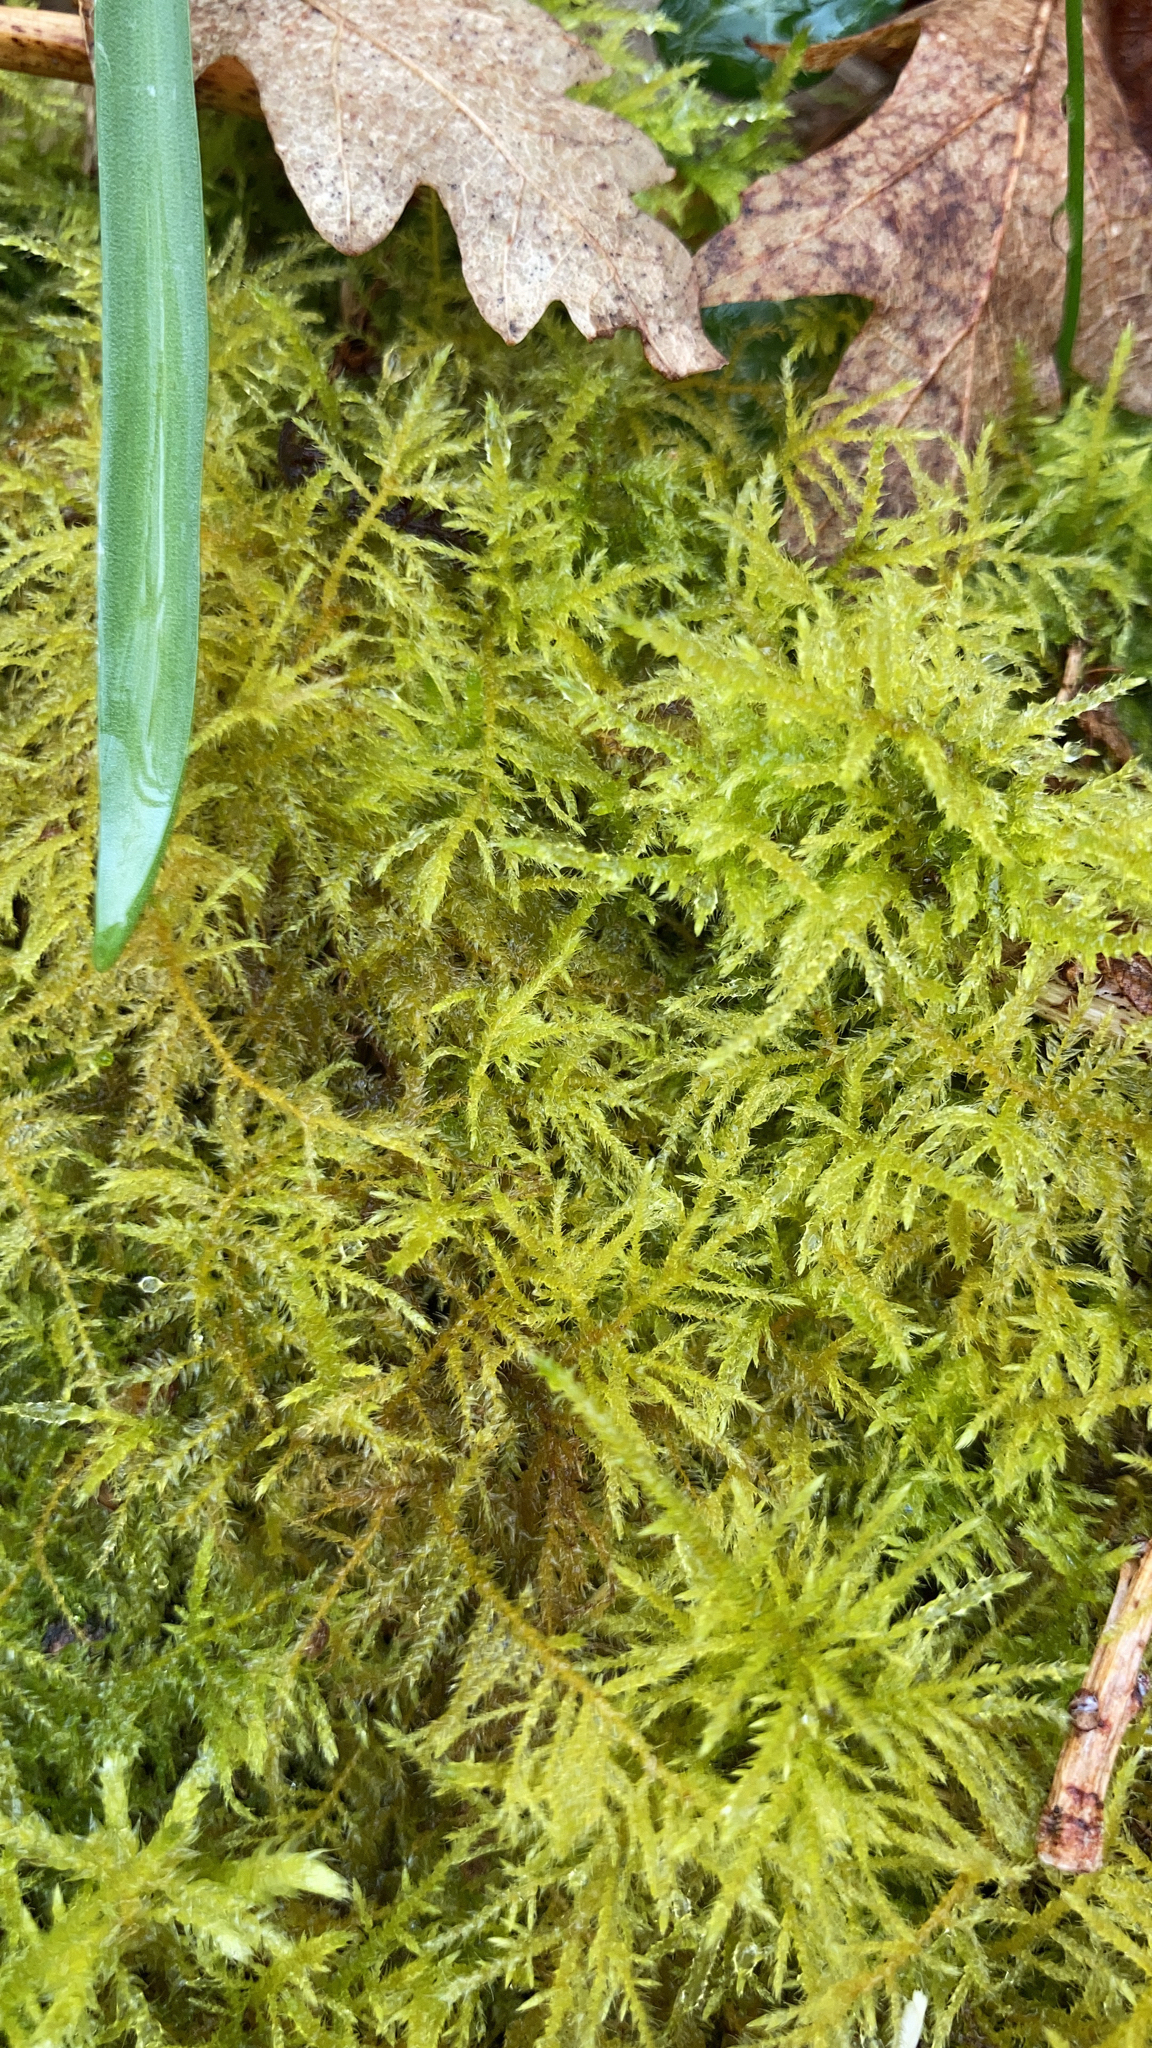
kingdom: Plantae
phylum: Bryophyta
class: Bryopsida
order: Hypnales
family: Brachytheciaceae
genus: Kindbergia
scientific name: Kindbergia praelonga
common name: Slender beaked moss
